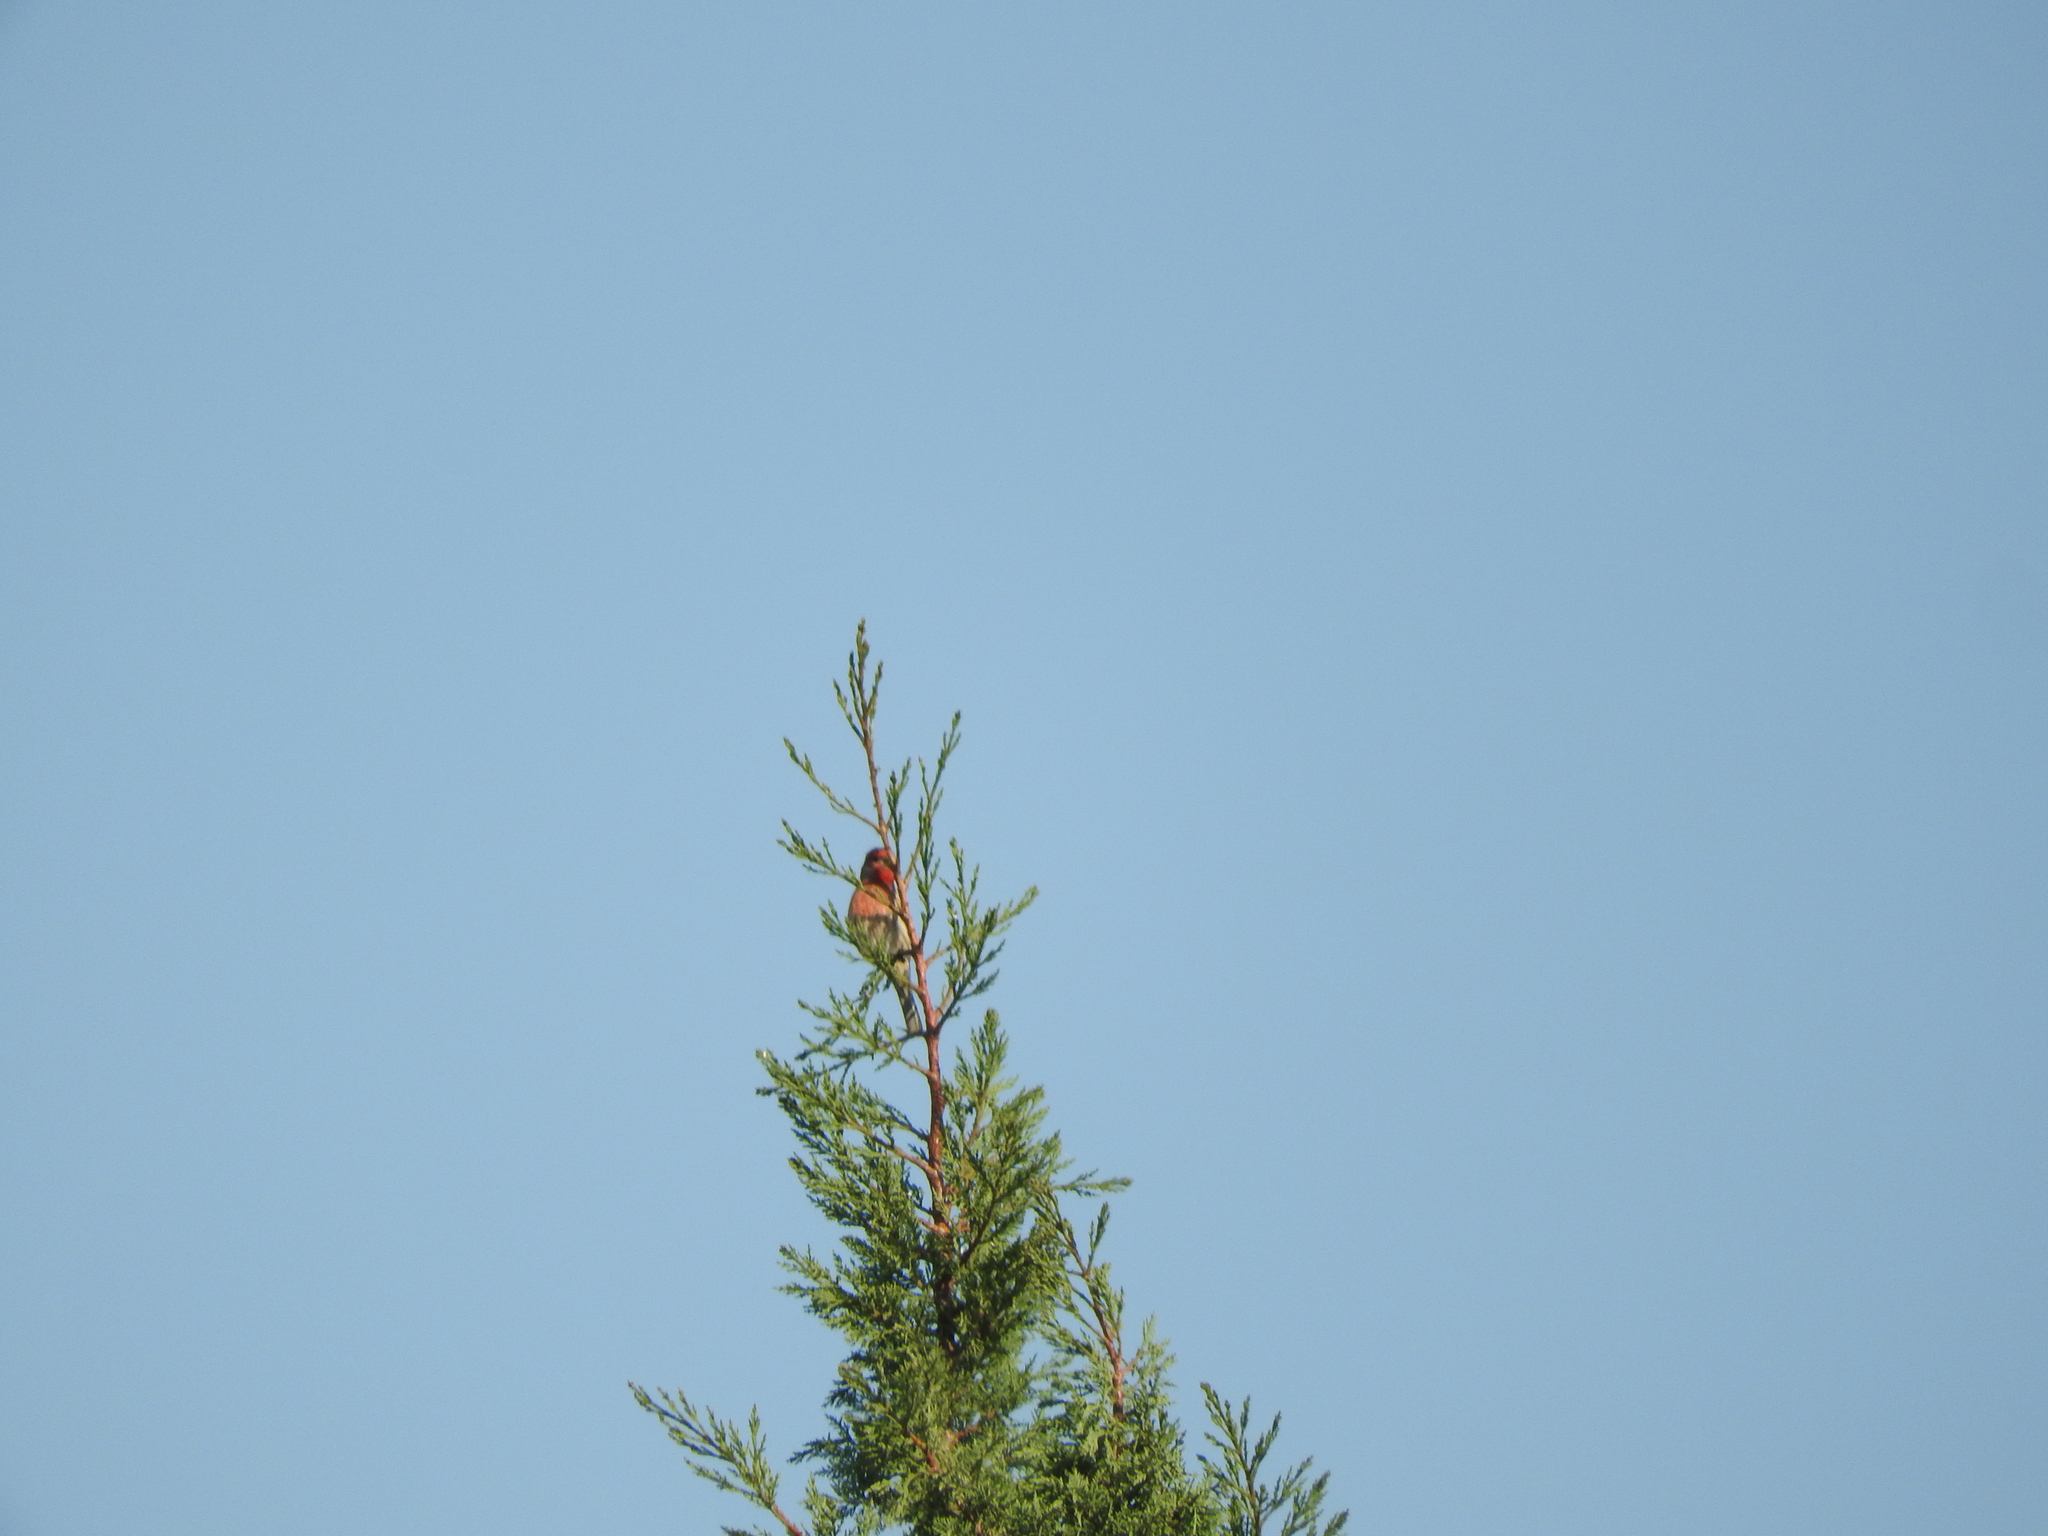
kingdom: Animalia
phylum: Chordata
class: Aves
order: Passeriformes
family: Fringillidae
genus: Haemorhous
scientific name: Haemorhous mexicanus
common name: House finch
